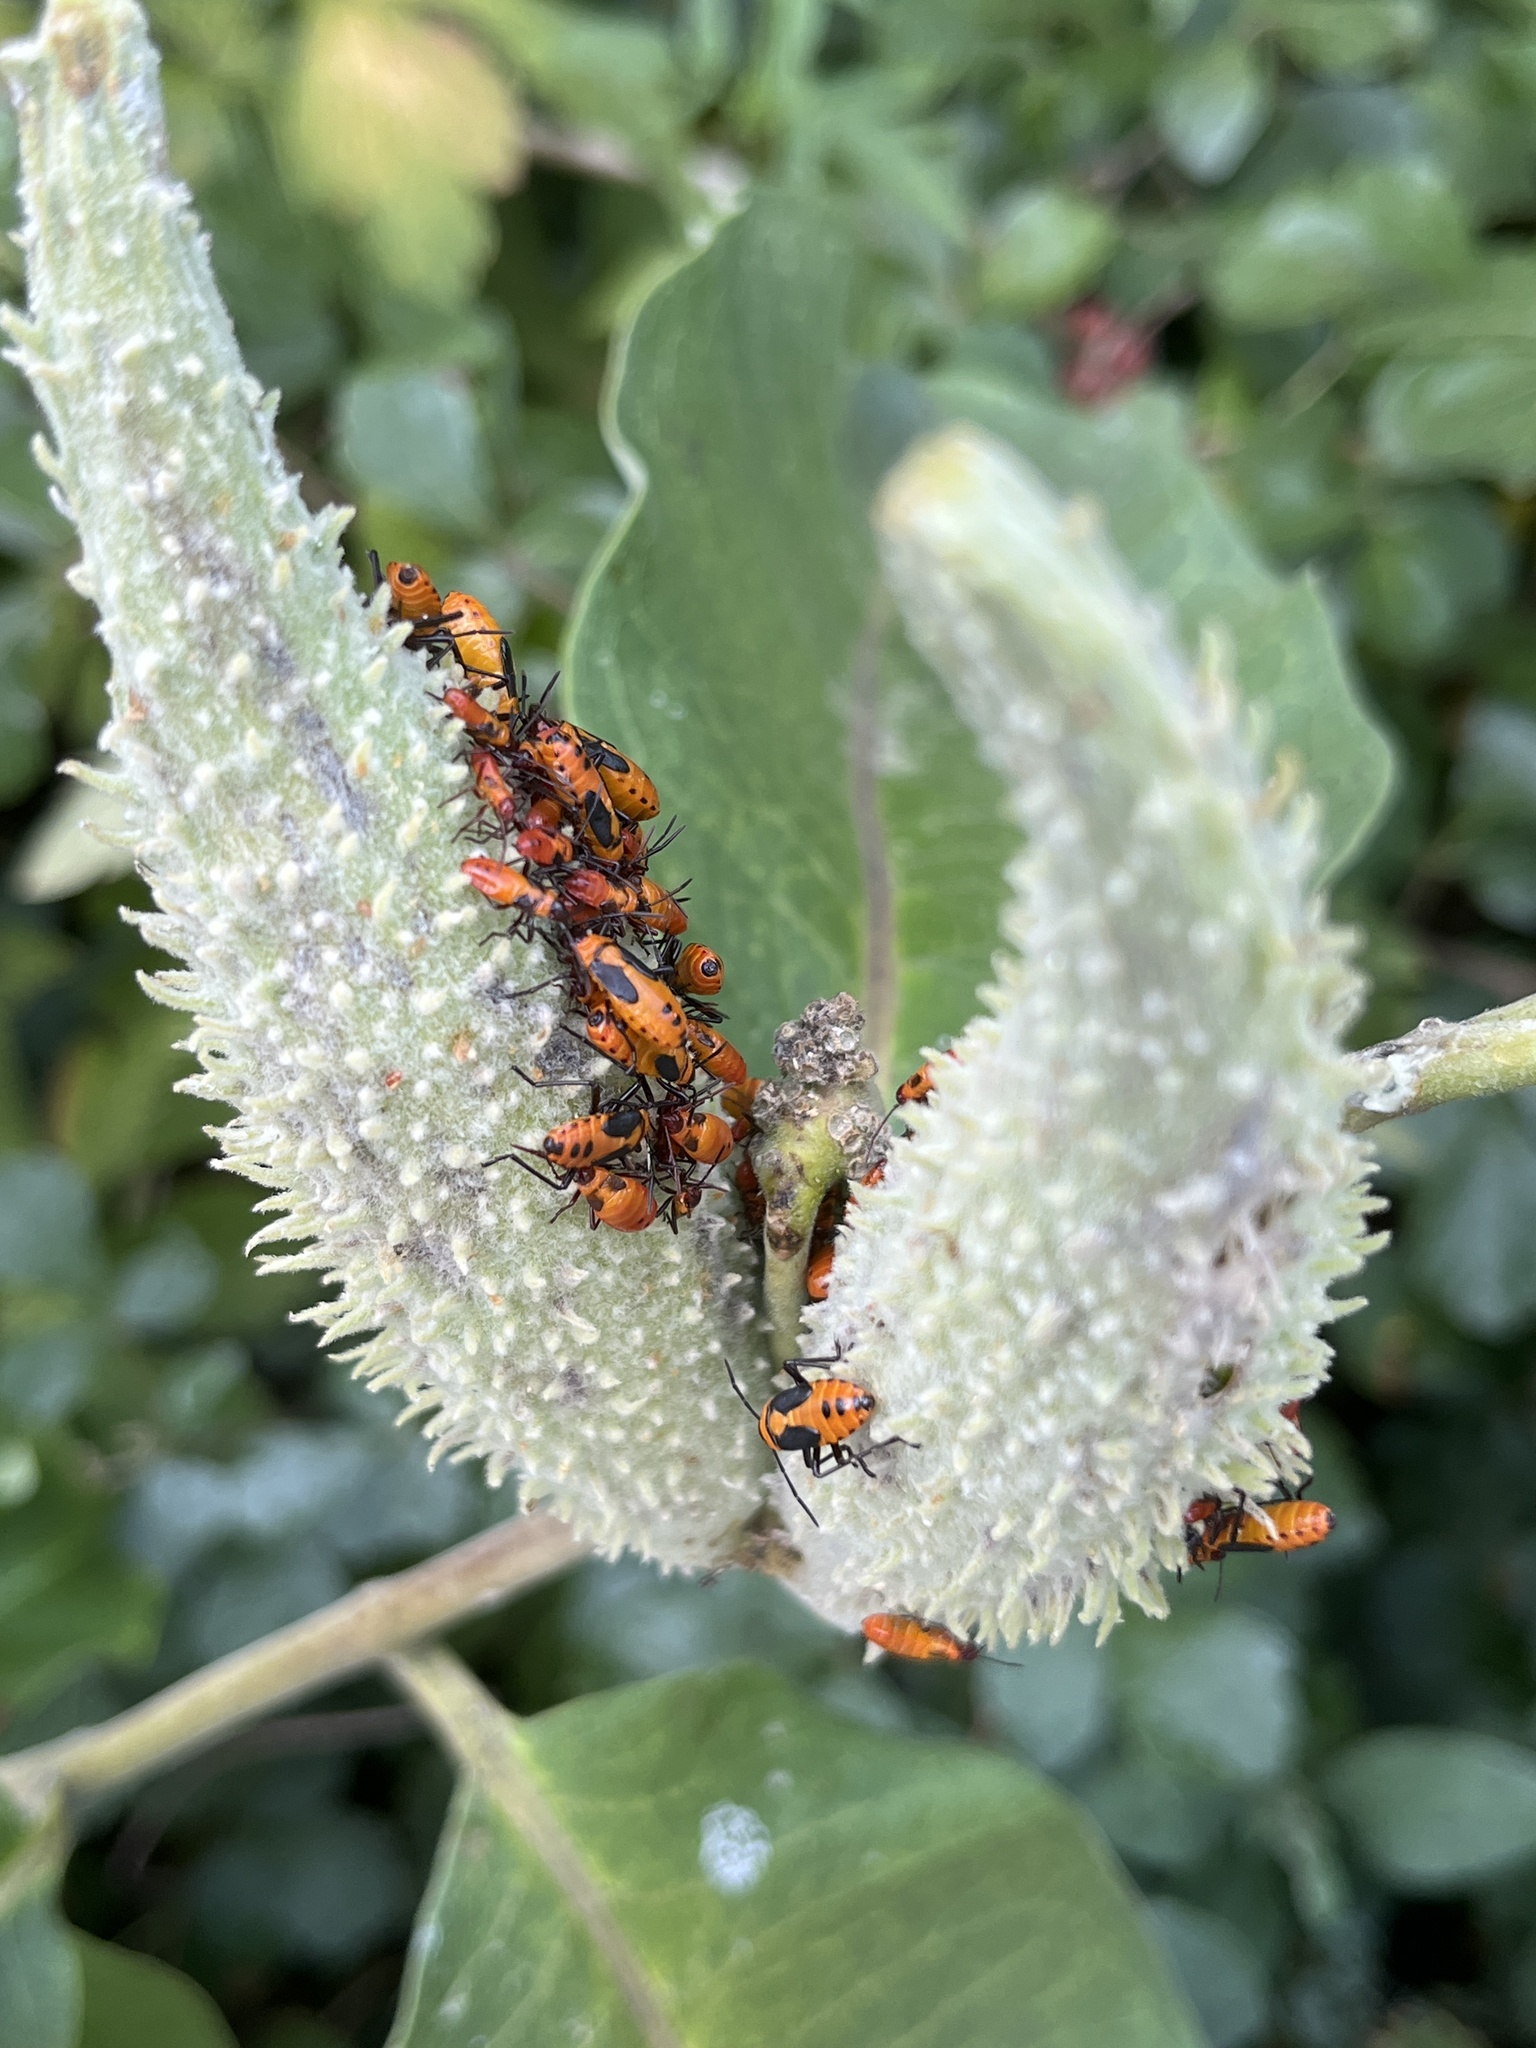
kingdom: Animalia
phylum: Arthropoda
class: Insecta
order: Hemiptera
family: Lygaeidae
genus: Oncopeltus
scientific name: Oncopeltus fasciatus
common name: Large milkweed bug
